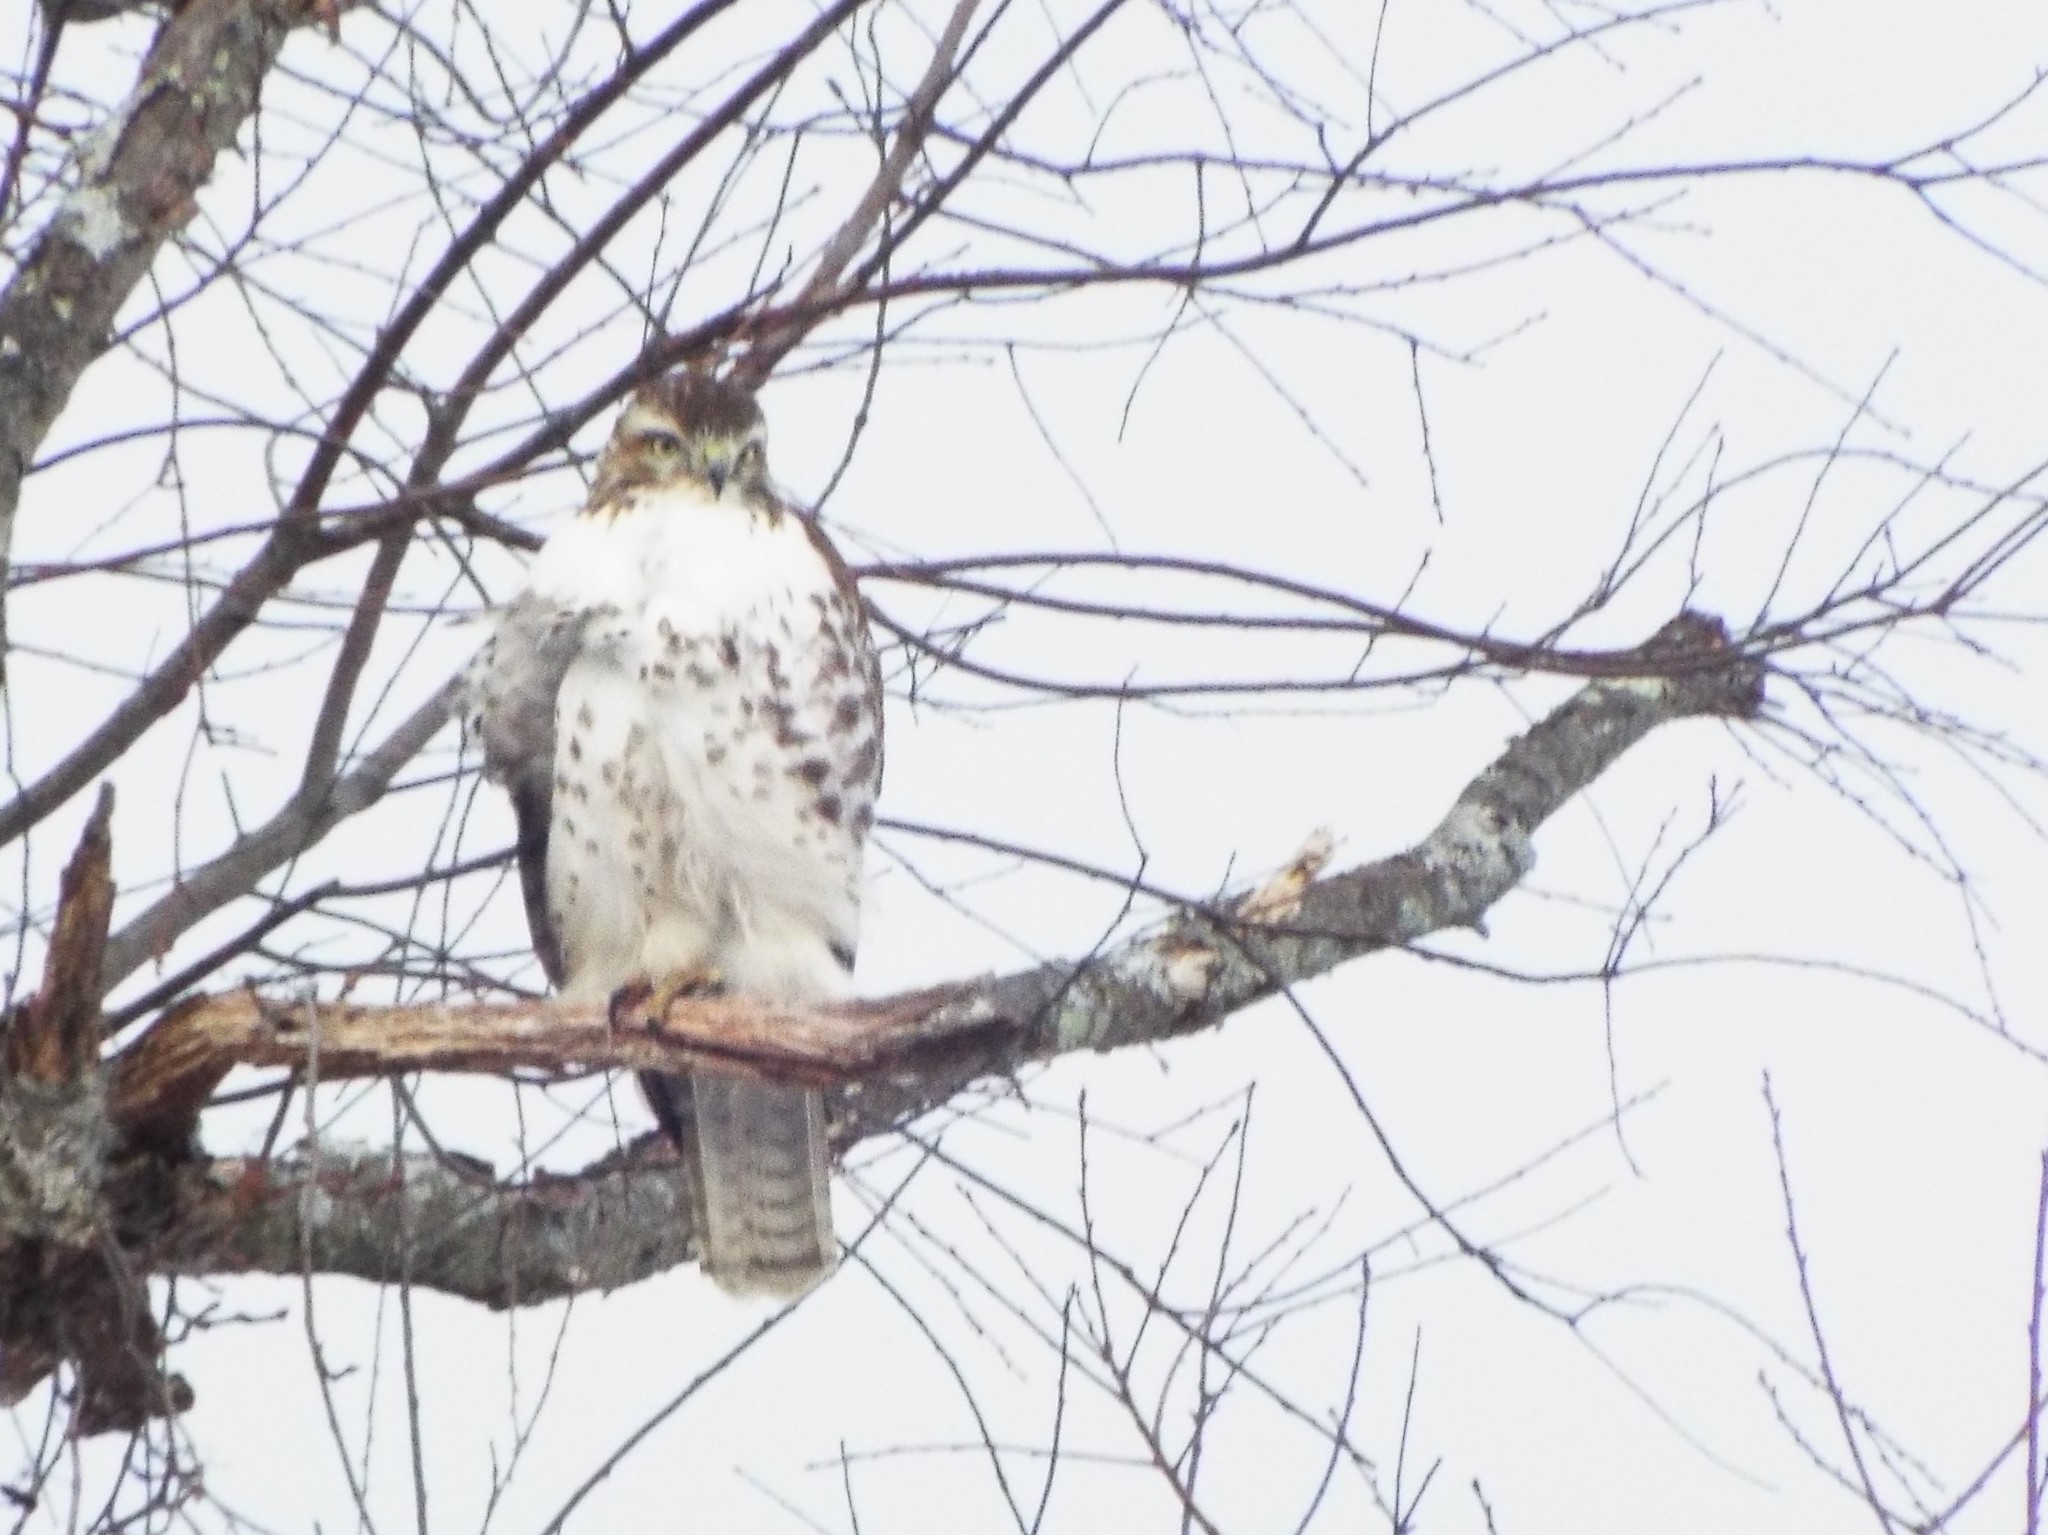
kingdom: Animalia
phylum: Chordata
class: Aves
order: Accipitriformes
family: Accipitridae
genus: Buteo
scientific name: Buteo jamaicensis
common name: Red-tailed hawk
